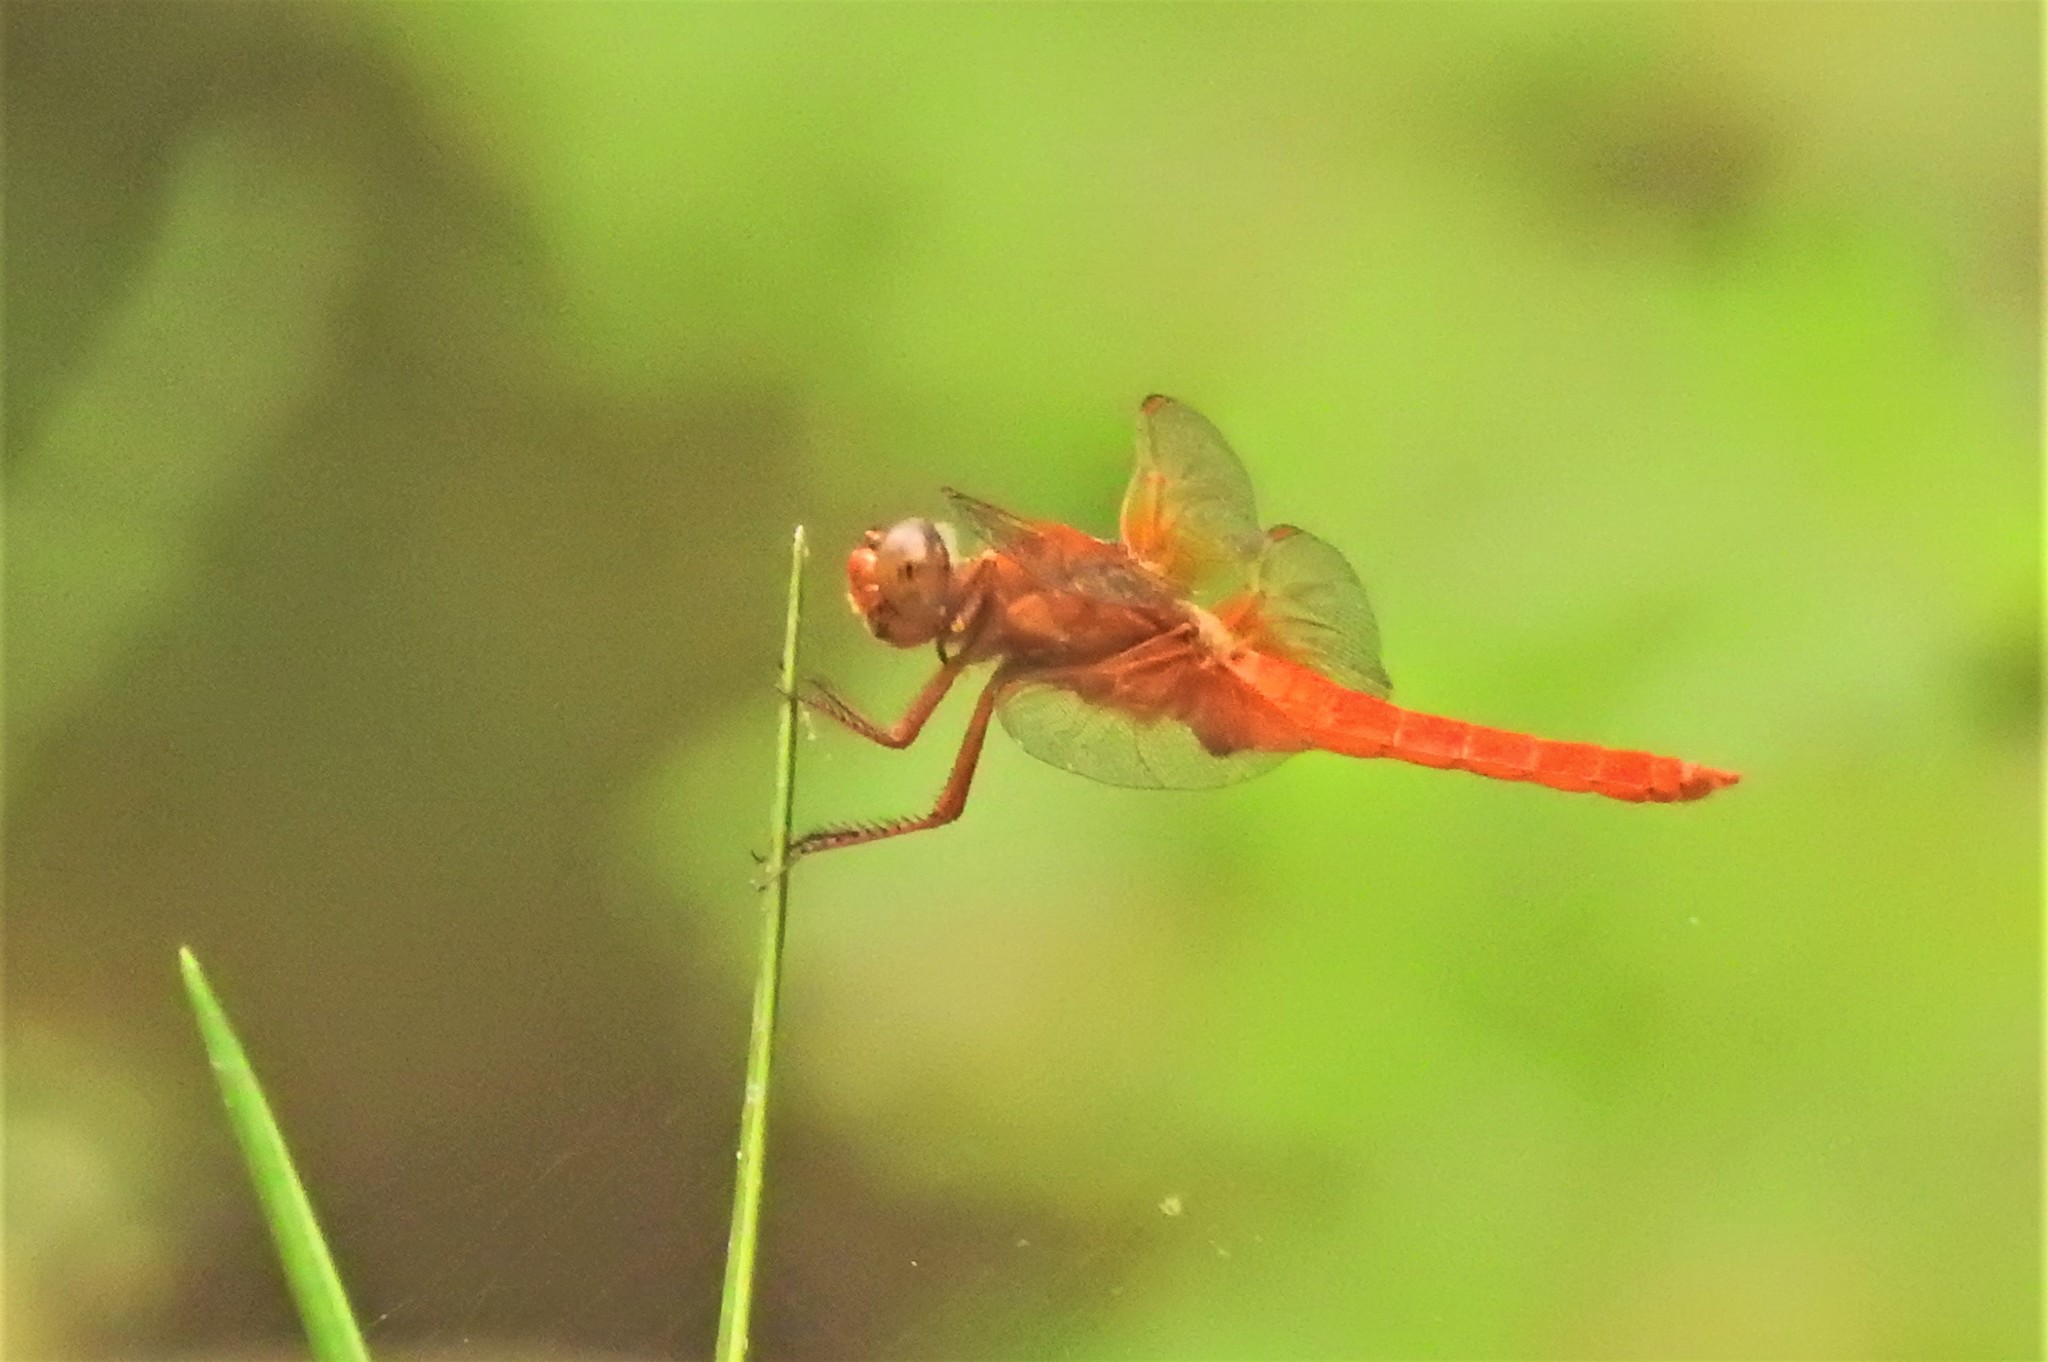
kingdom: Animalia
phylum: Arthropoda
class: Insecta
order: Odonata
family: Libellulidae
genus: Libellula
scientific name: Libellula croceipennis
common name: Neon skimmer
